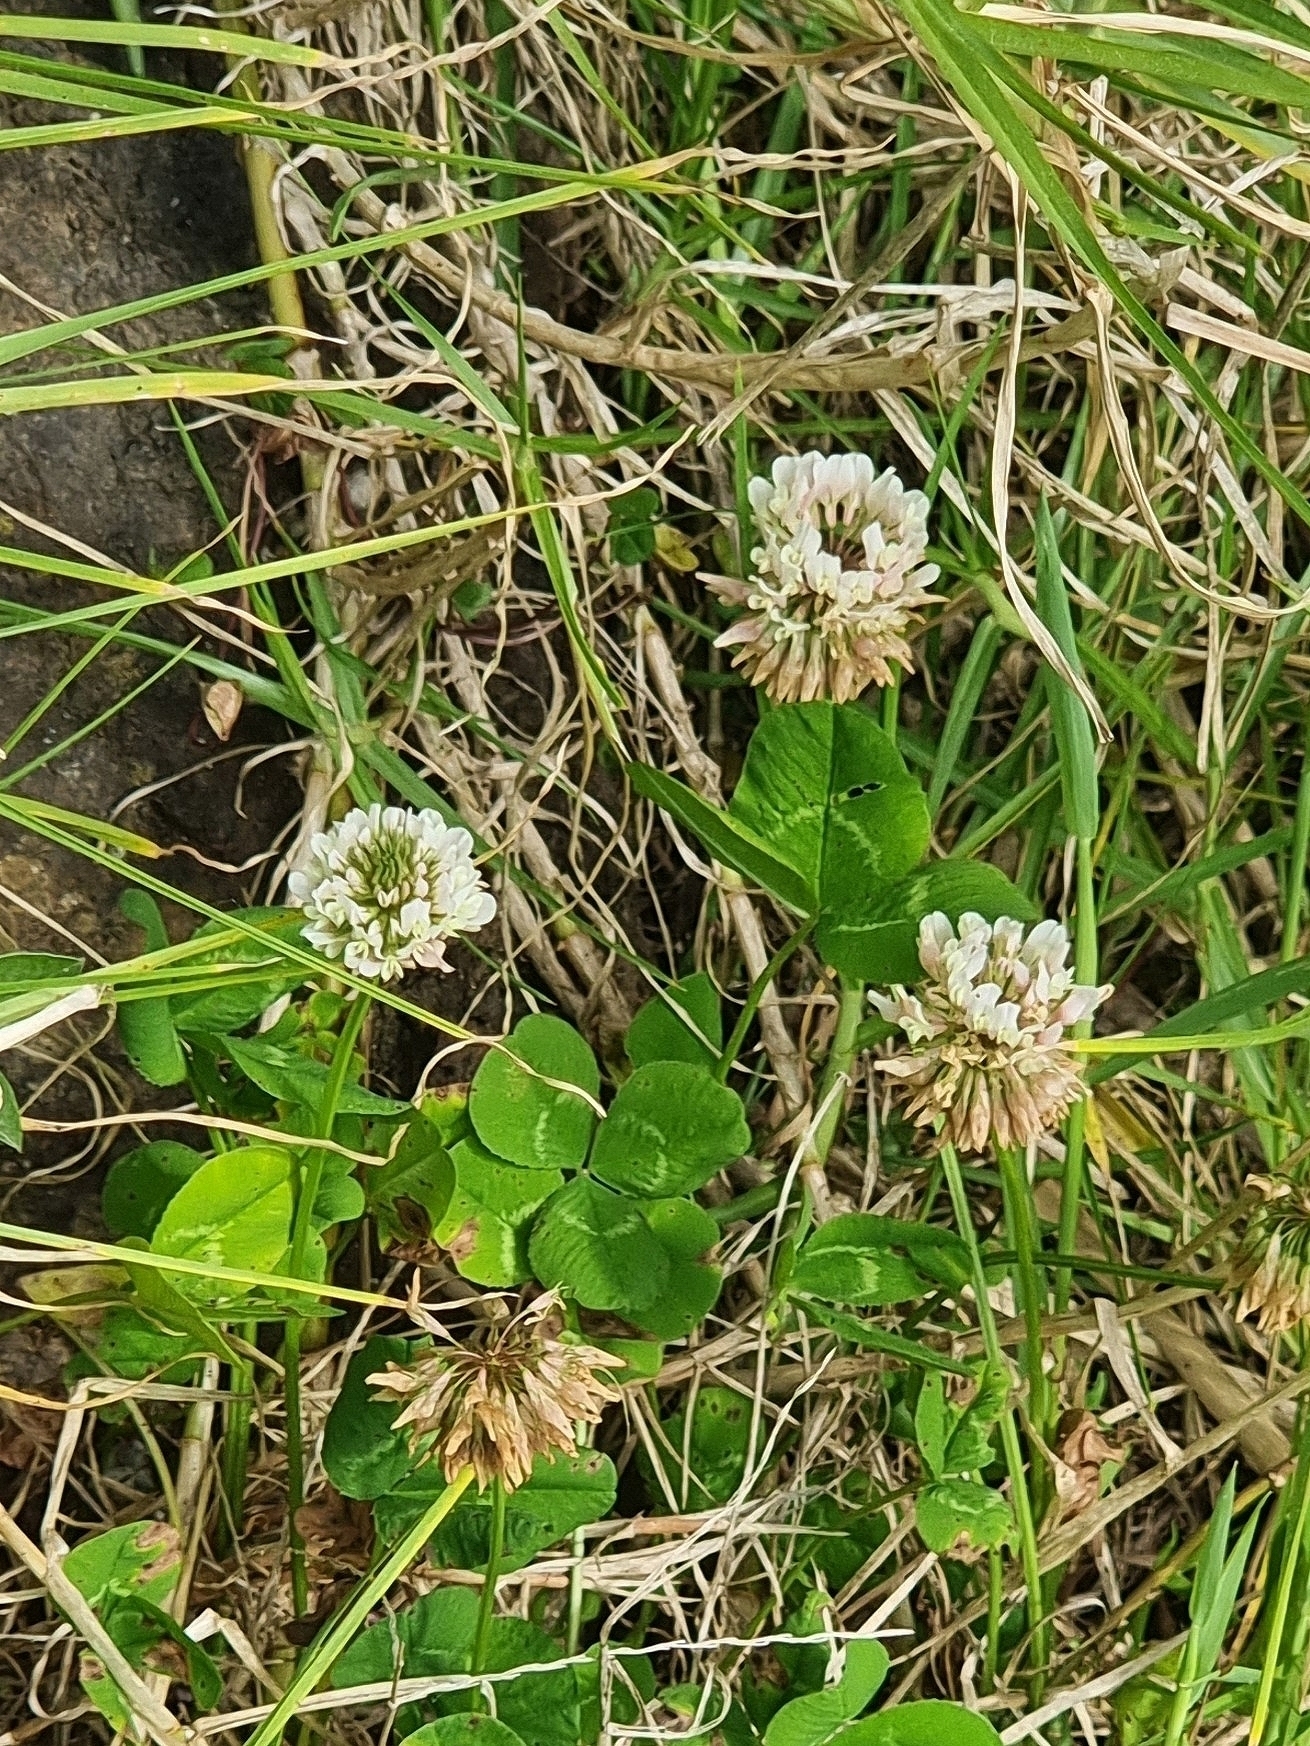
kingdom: Plantae
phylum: Tracheophyta
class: Magnoliopsida
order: Fabales
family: Fabaceae
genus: Trifolium
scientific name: Trifolium repens
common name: White clover
